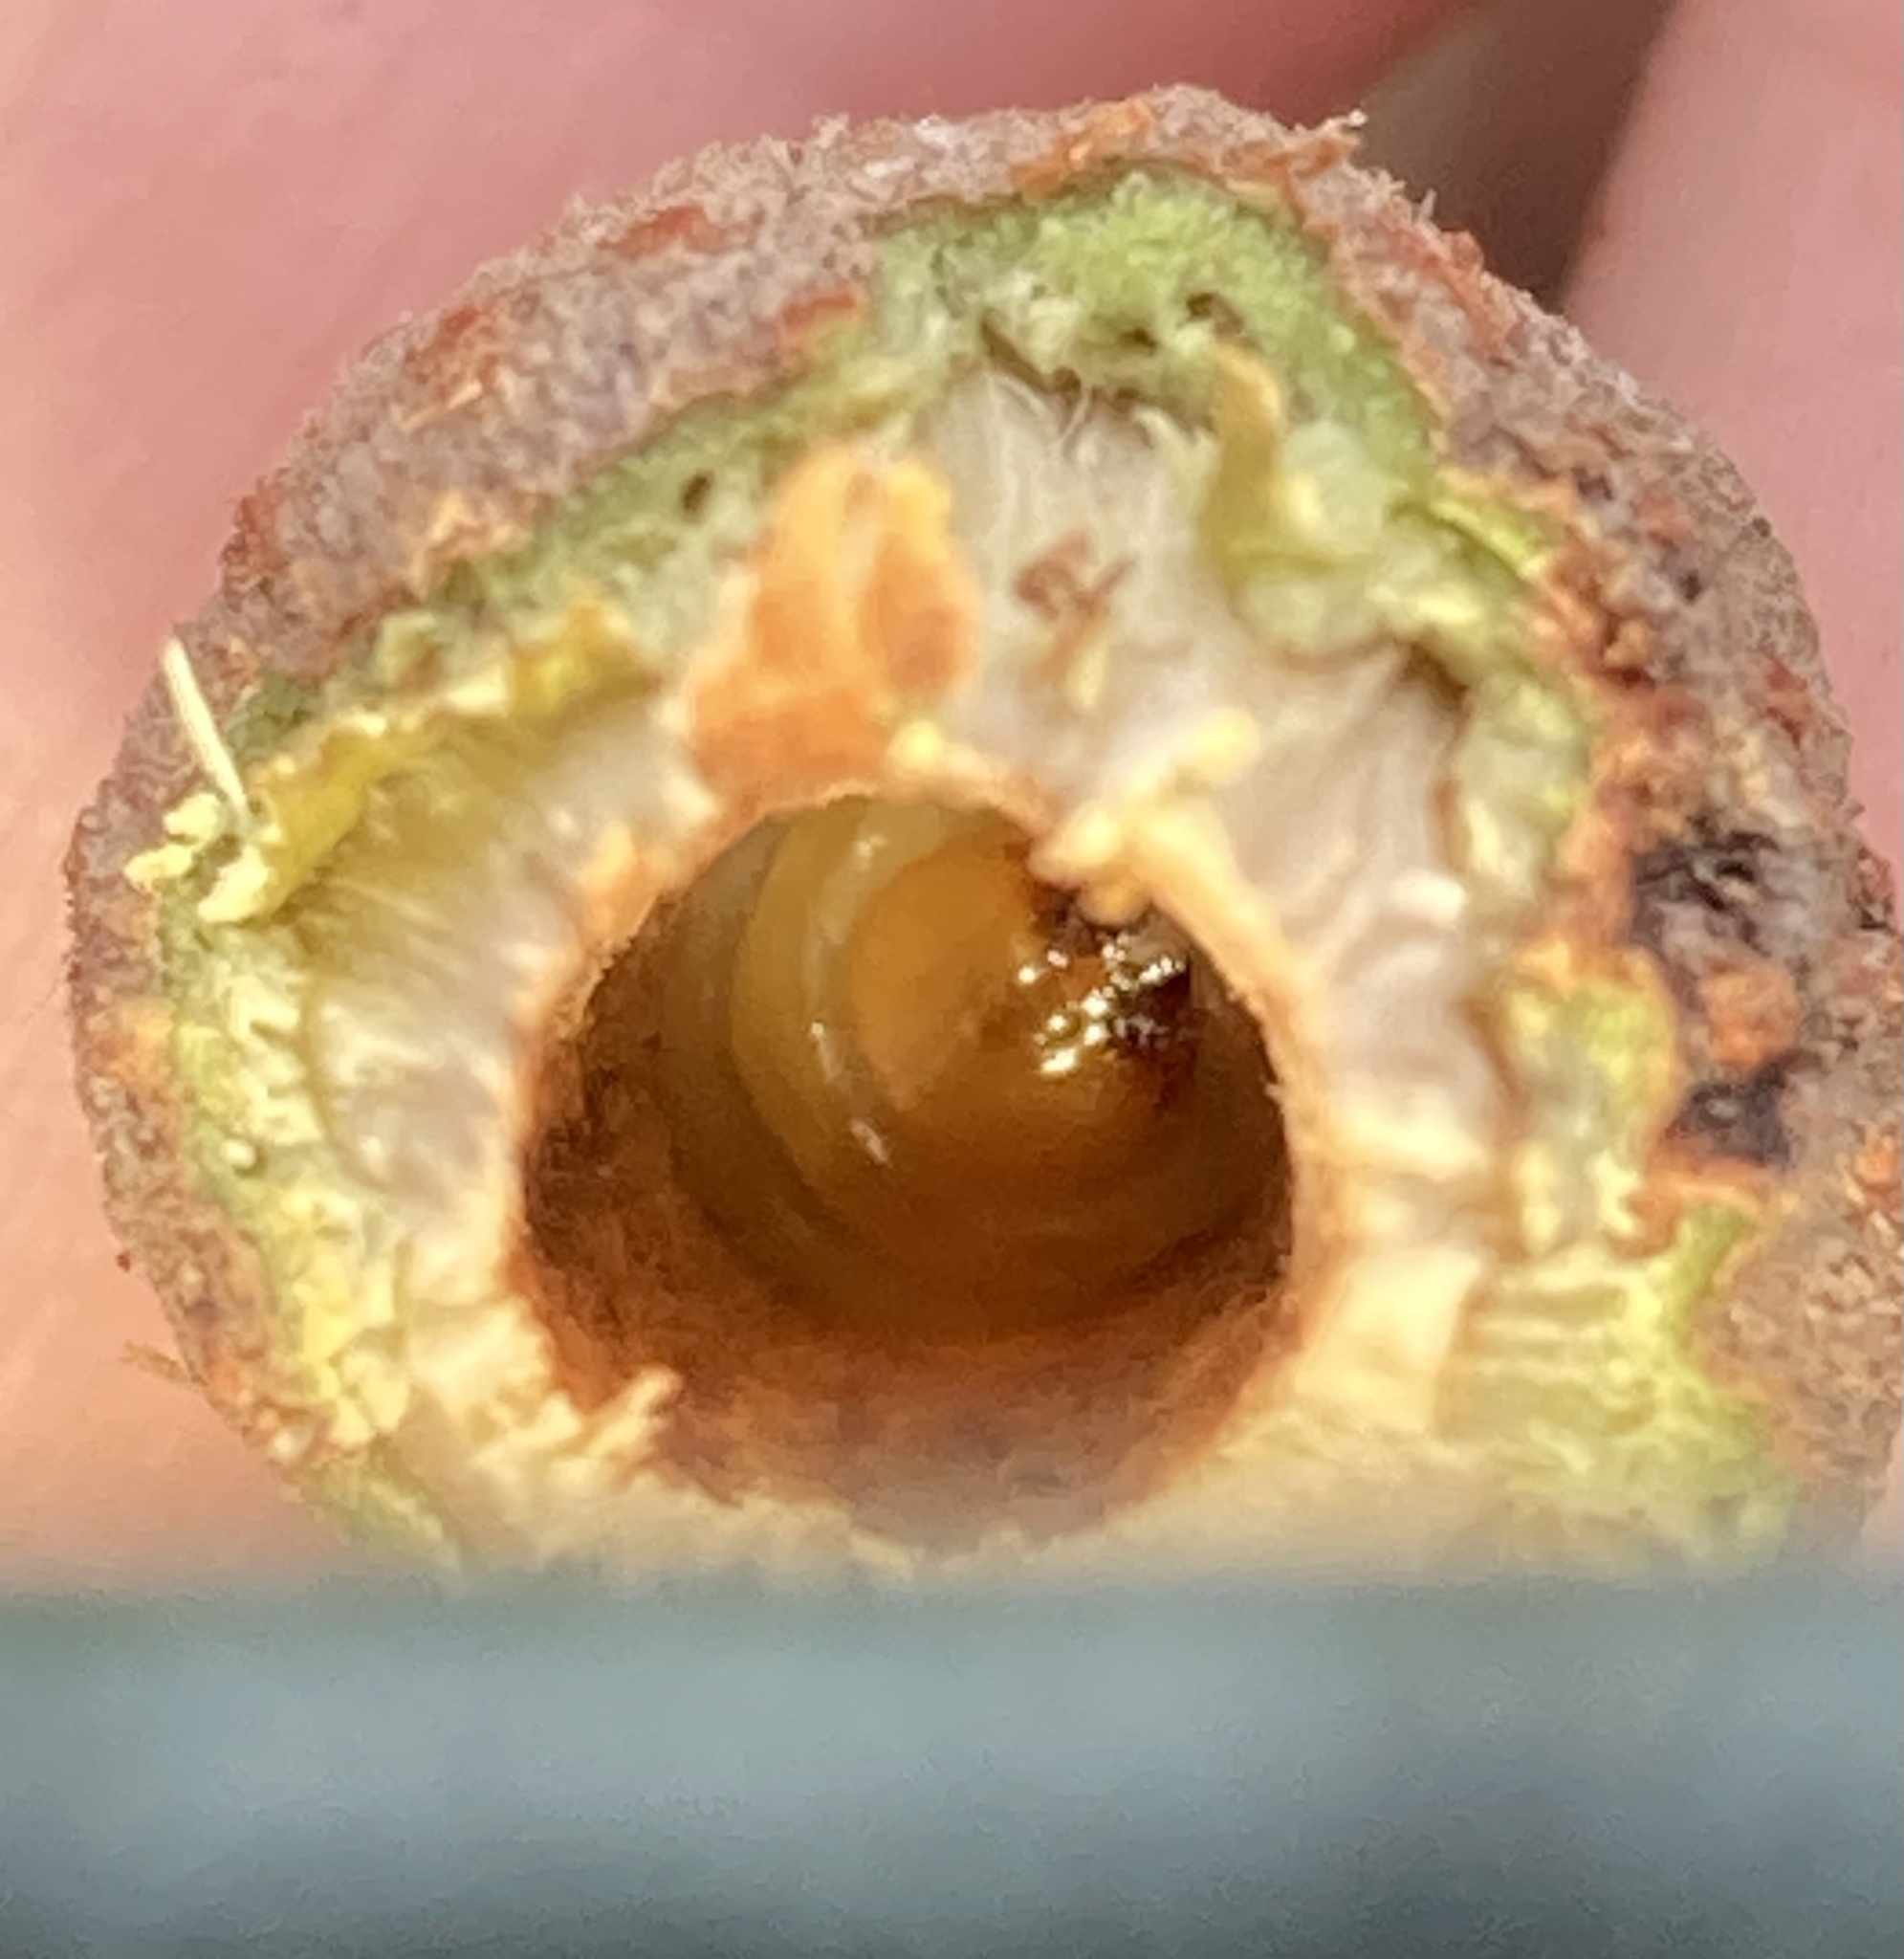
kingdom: Animalia
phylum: Arthropoda
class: Insecta
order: Lepidoptera
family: Thyrididae
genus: Hexeris
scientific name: Hexeris enhydris
